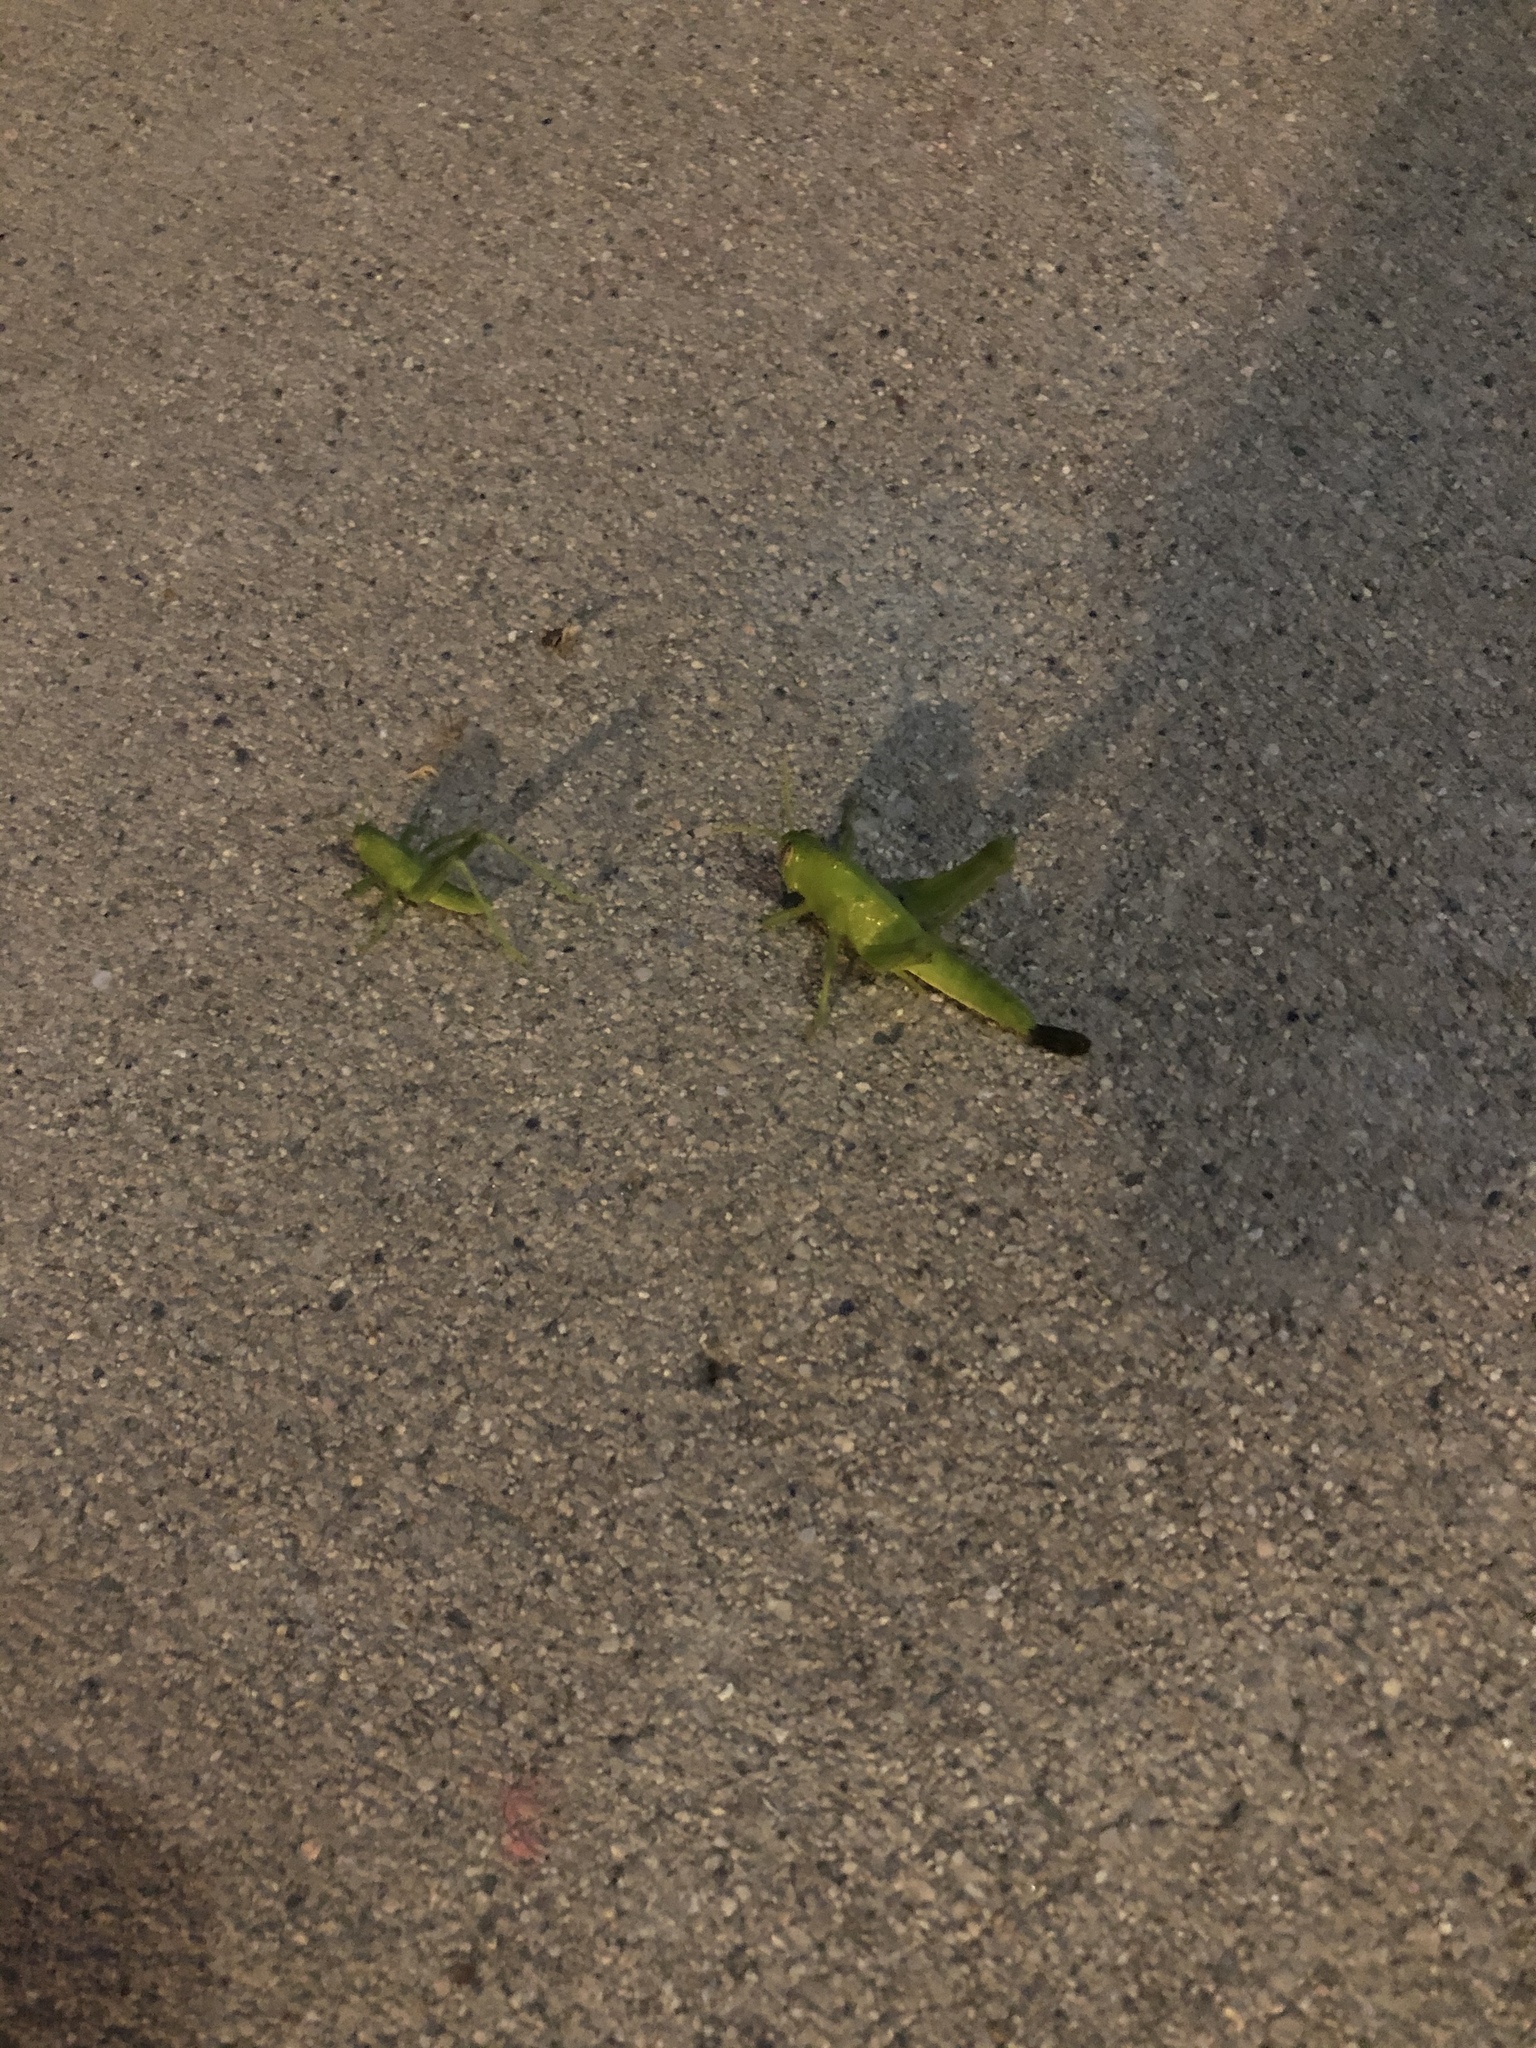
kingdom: Animalia
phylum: Arthropoda
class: Insecta
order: Orthoptera
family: Acrididae
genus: Schistocerca
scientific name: Schistocerca nitens
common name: Vagrant grasshopper
